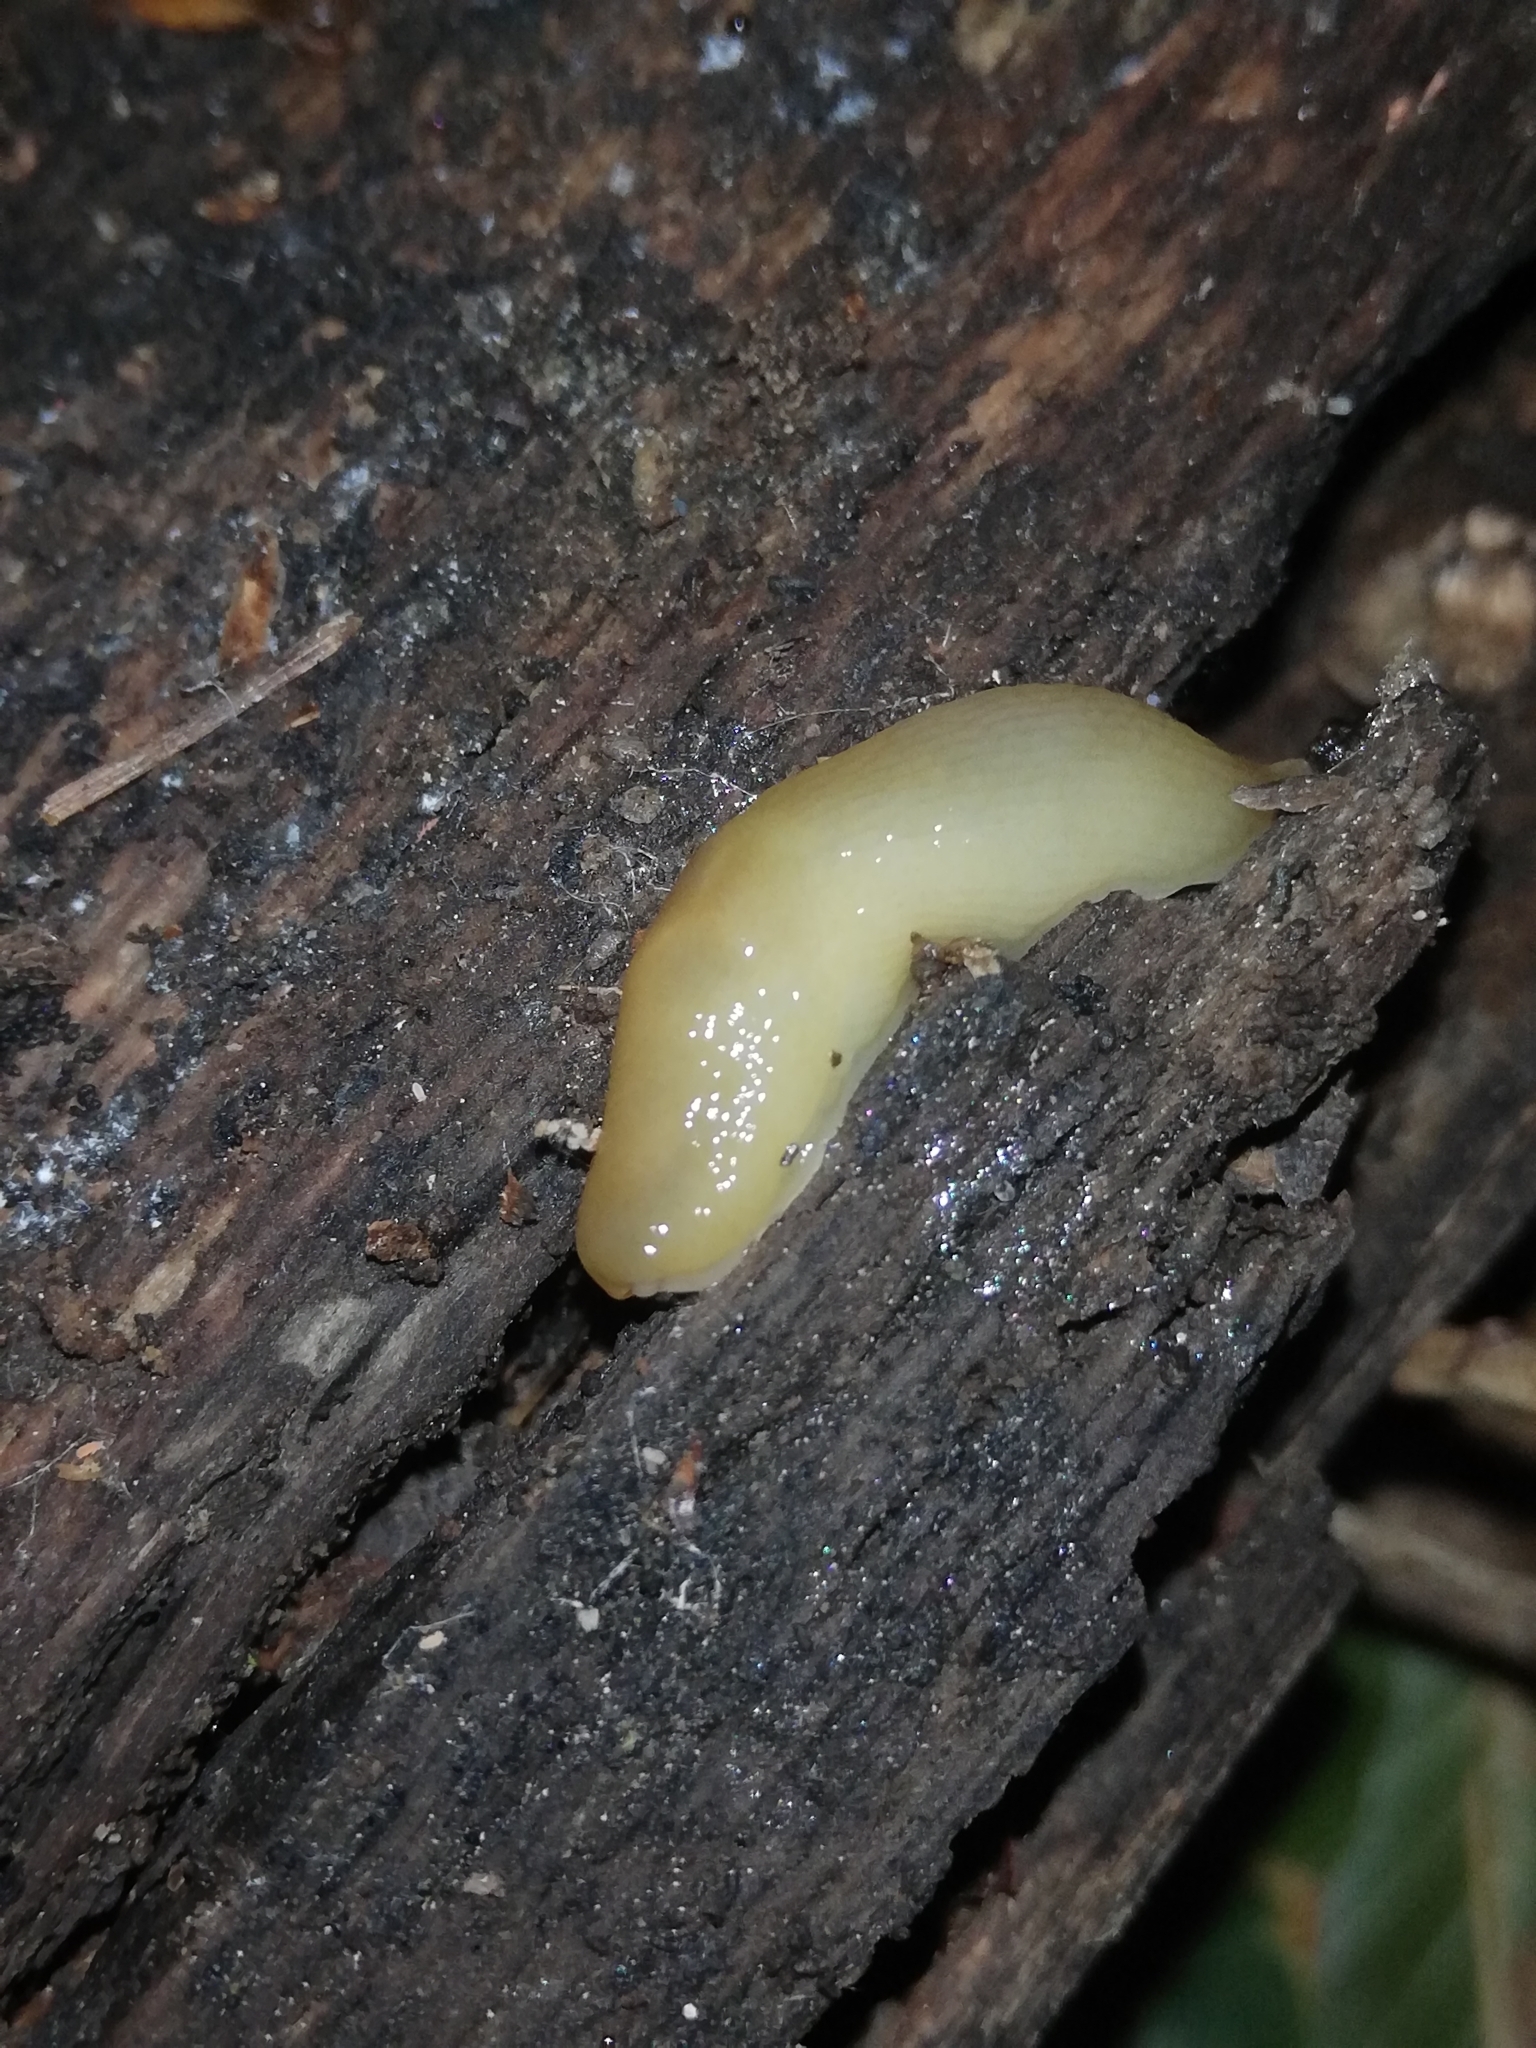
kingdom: Animalia
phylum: Mollusca
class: Gastropoda
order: Stylommatophora
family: Limacidae
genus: Malacolimax
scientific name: Malacolimax tenellus
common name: Lemon slug
